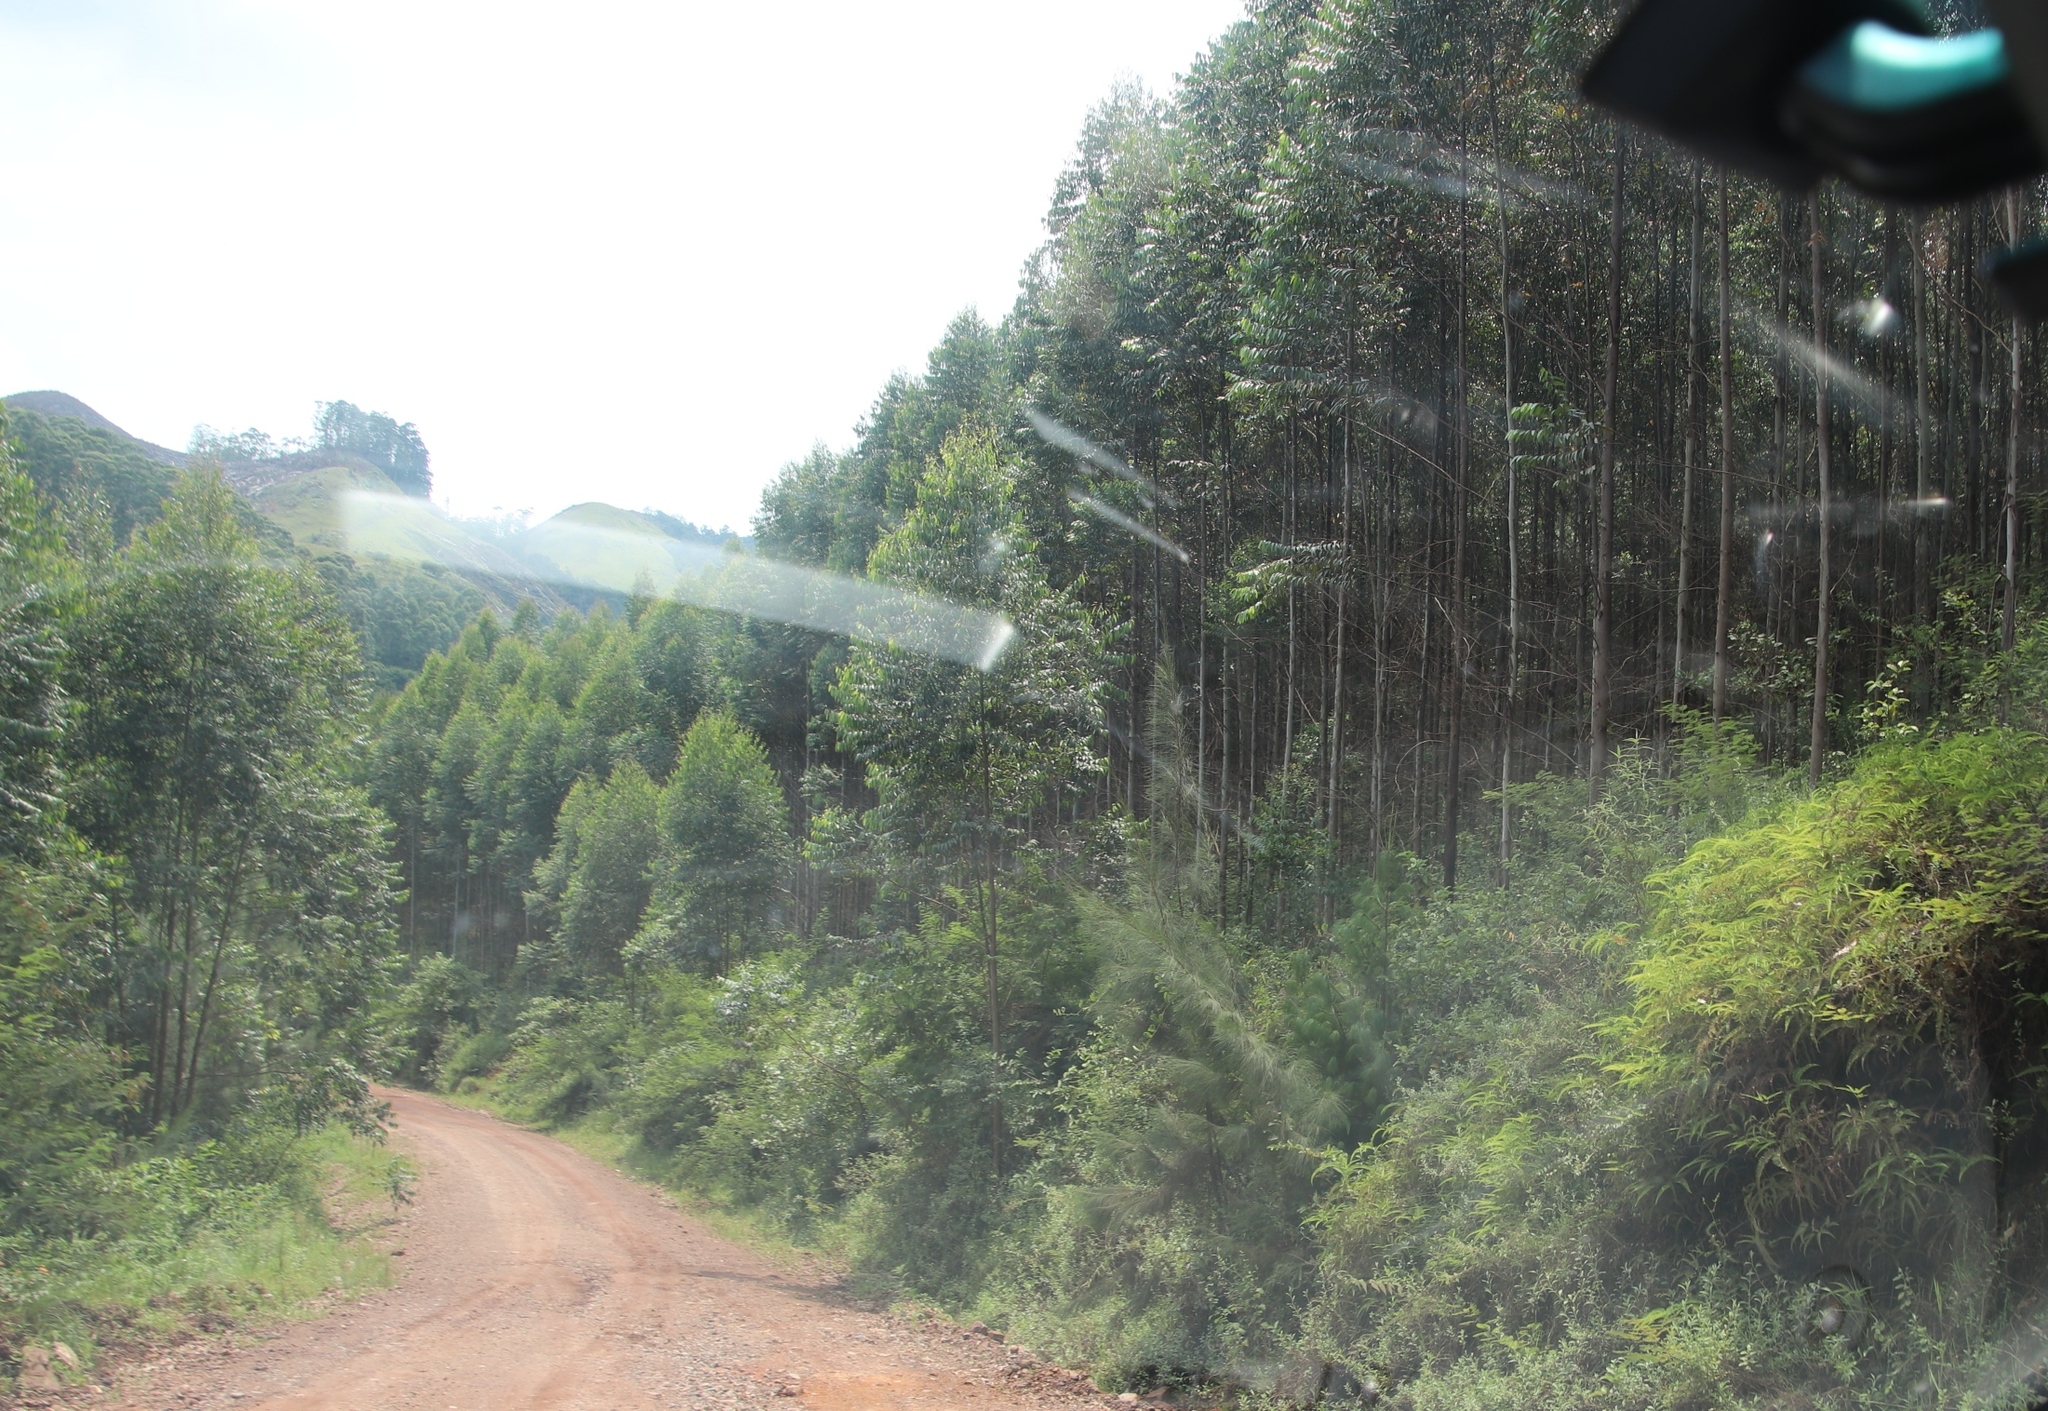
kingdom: Plantae
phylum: Tracheophyta
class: Magnoliopsida
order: Fagales
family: Casuarinaceae
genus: Casuarina
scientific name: Casuarina cunninghamiana
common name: River sheoak
